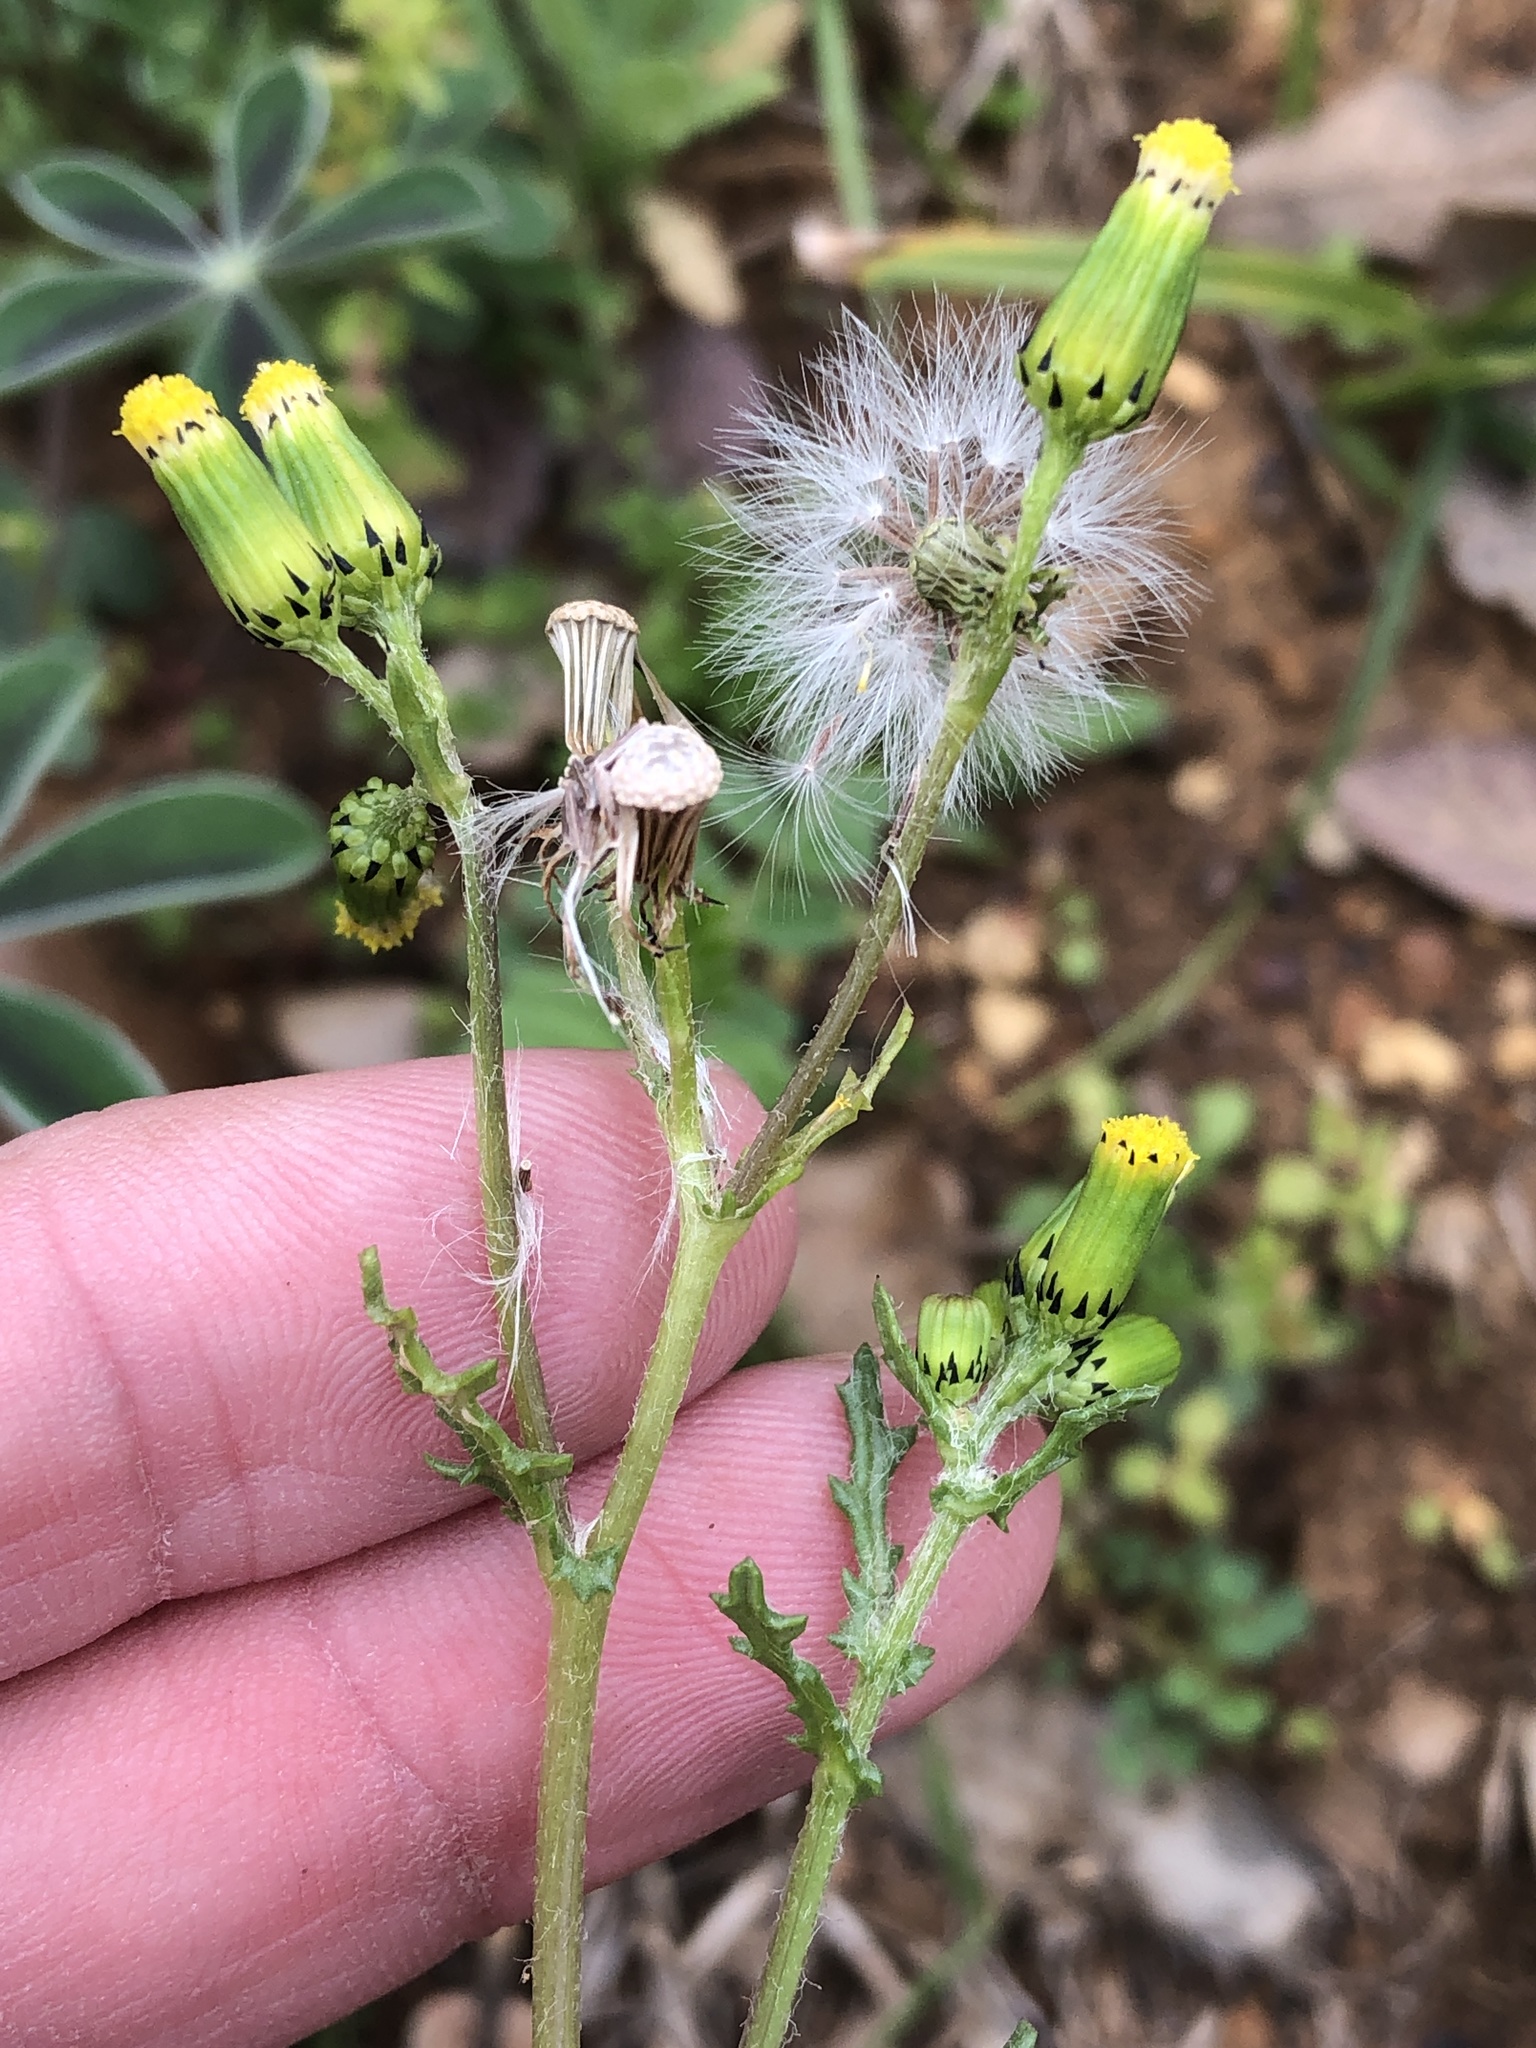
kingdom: Plantae
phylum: Tracheophyta
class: Magnoliopsida
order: Asterales
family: Asteraceae
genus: Senecio
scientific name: Senecio vulgaris
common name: Old-man-in-the-spring
